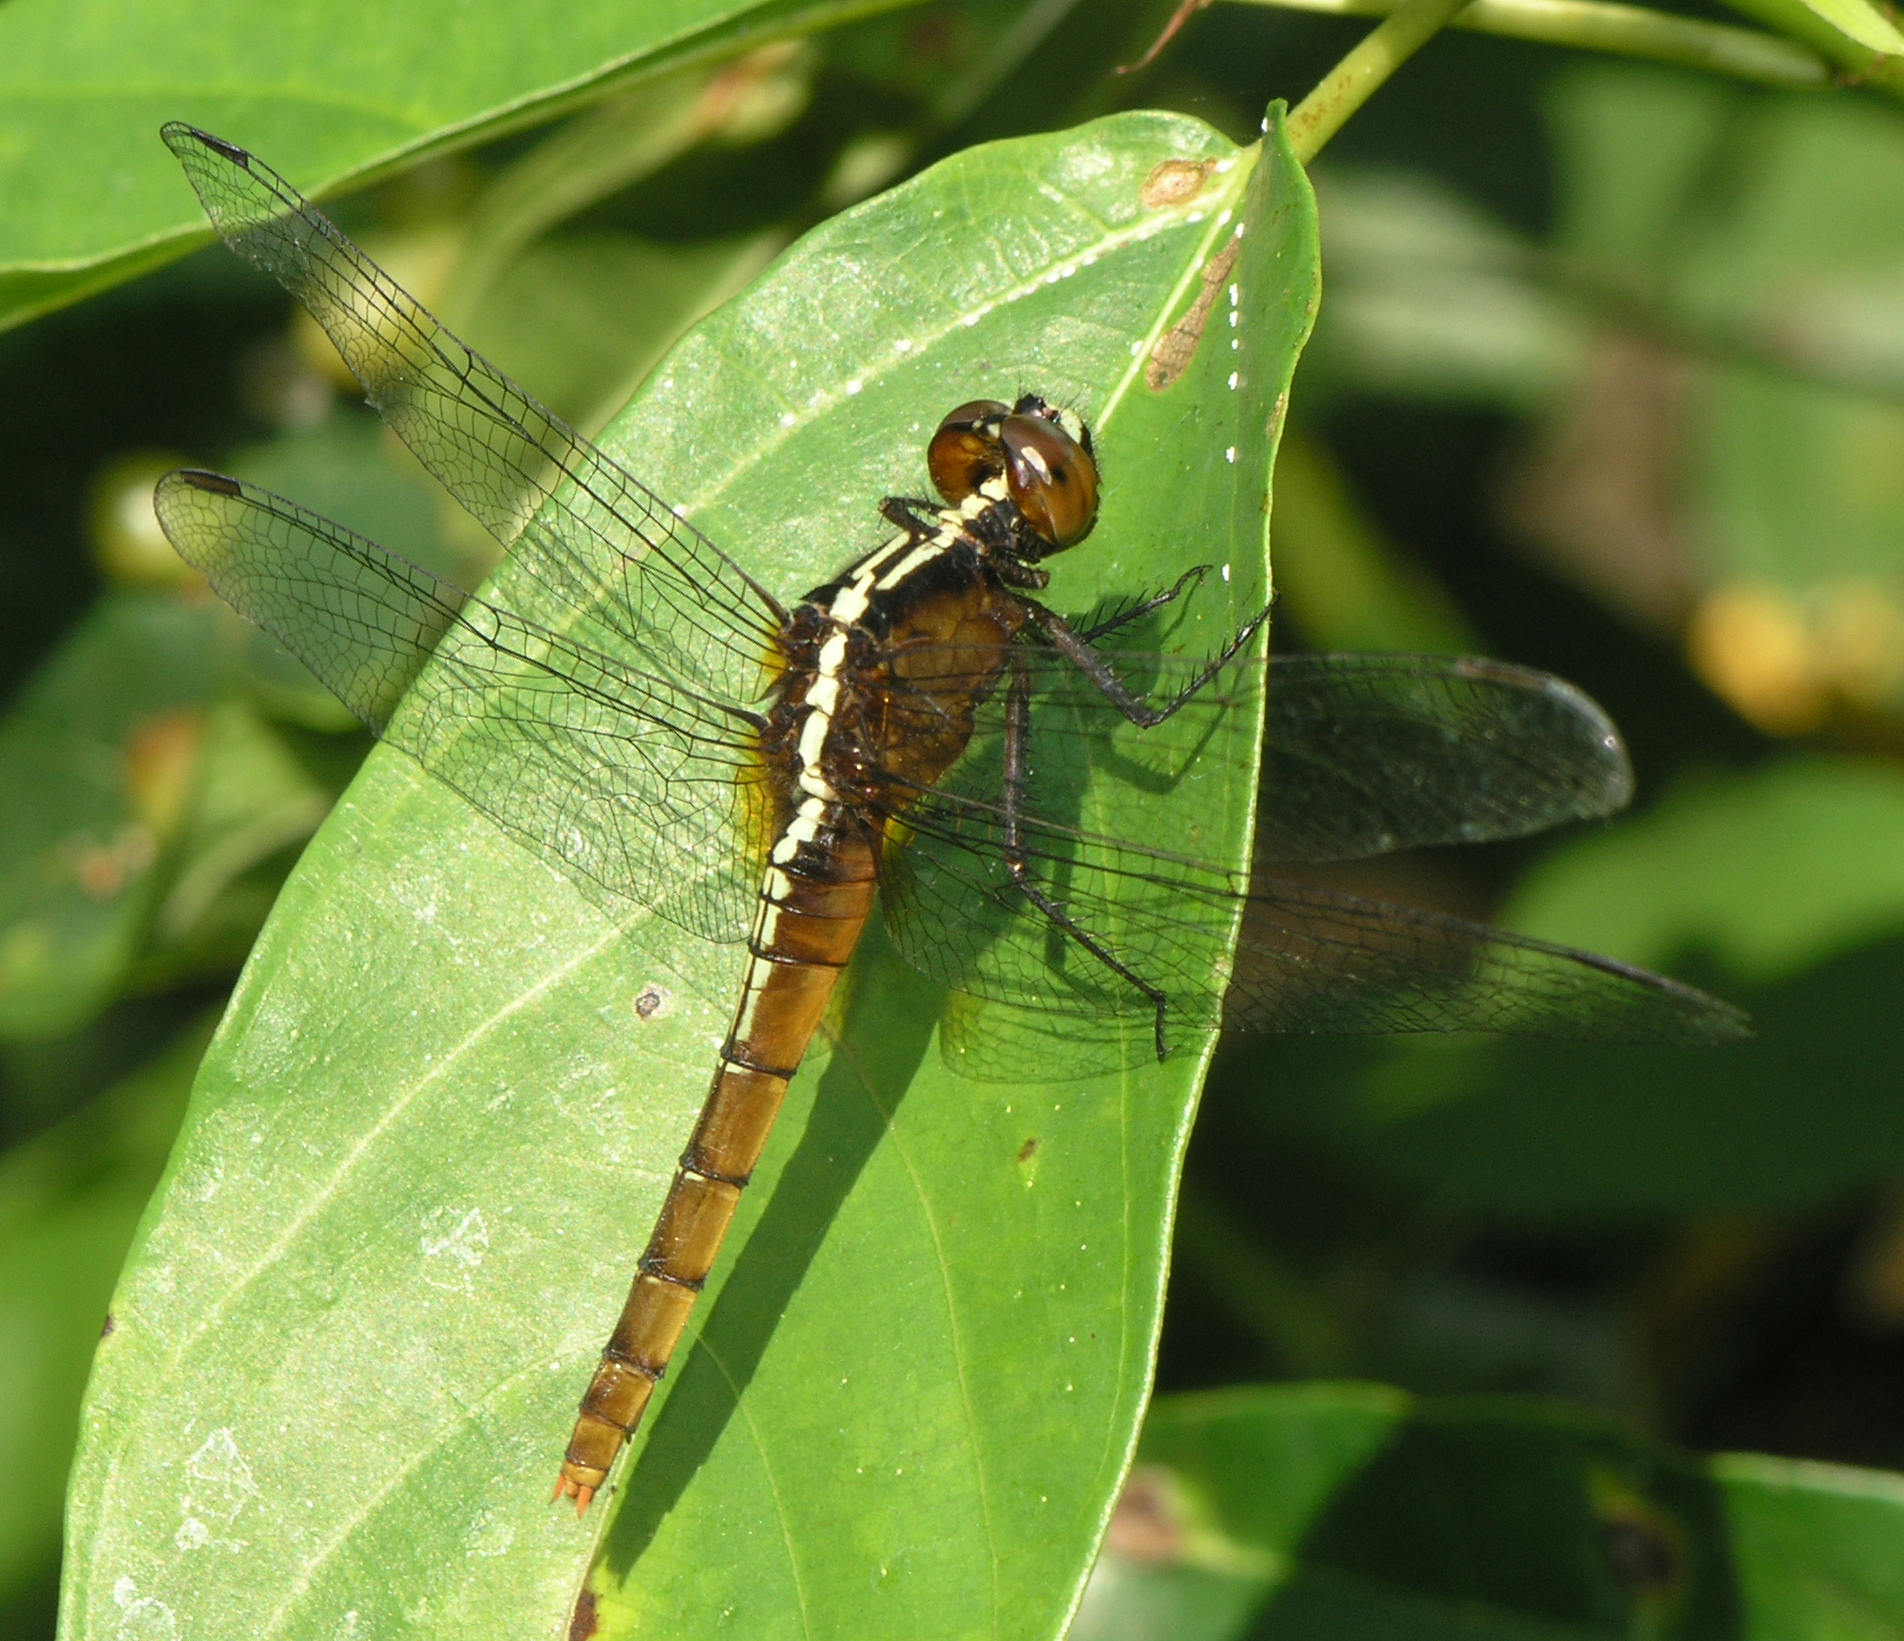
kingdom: Animalia
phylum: Arthropoda
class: Insecta
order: Odonata
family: Libellulidae
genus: Rhodothemis
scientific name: Rhodothemis rufa
